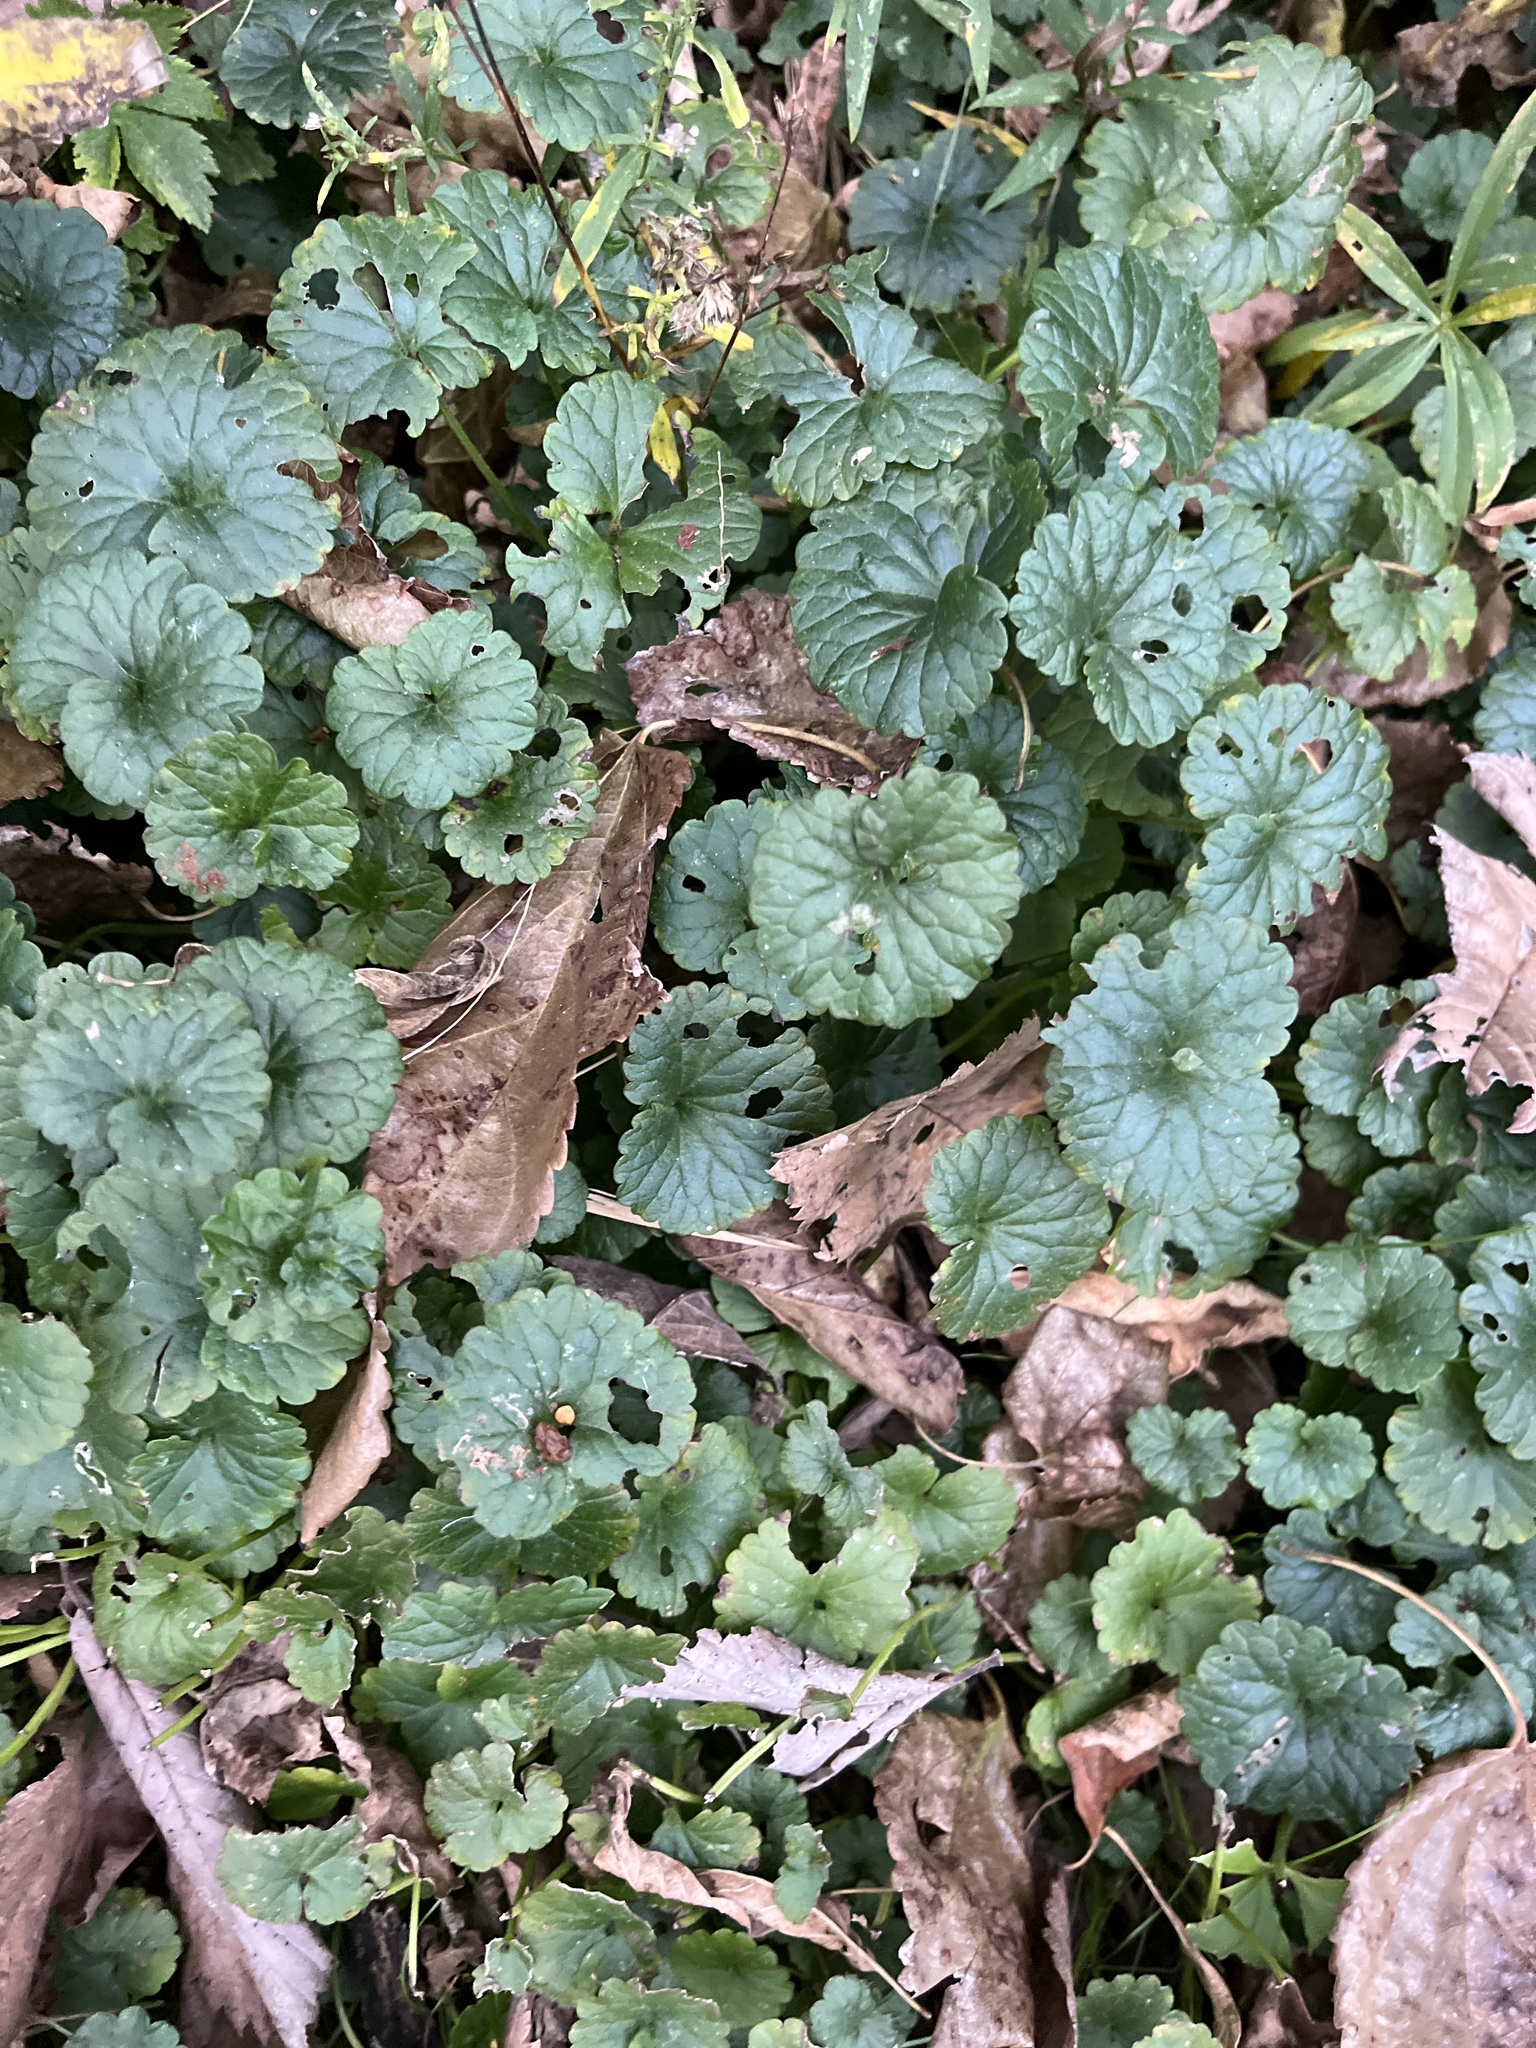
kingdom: Plantae
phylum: Tracheophyta
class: Magnoliopsida
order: Lamiales
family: Lamiaceae
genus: Glechoma
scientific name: Glechoma hederacea
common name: Ground ivy
